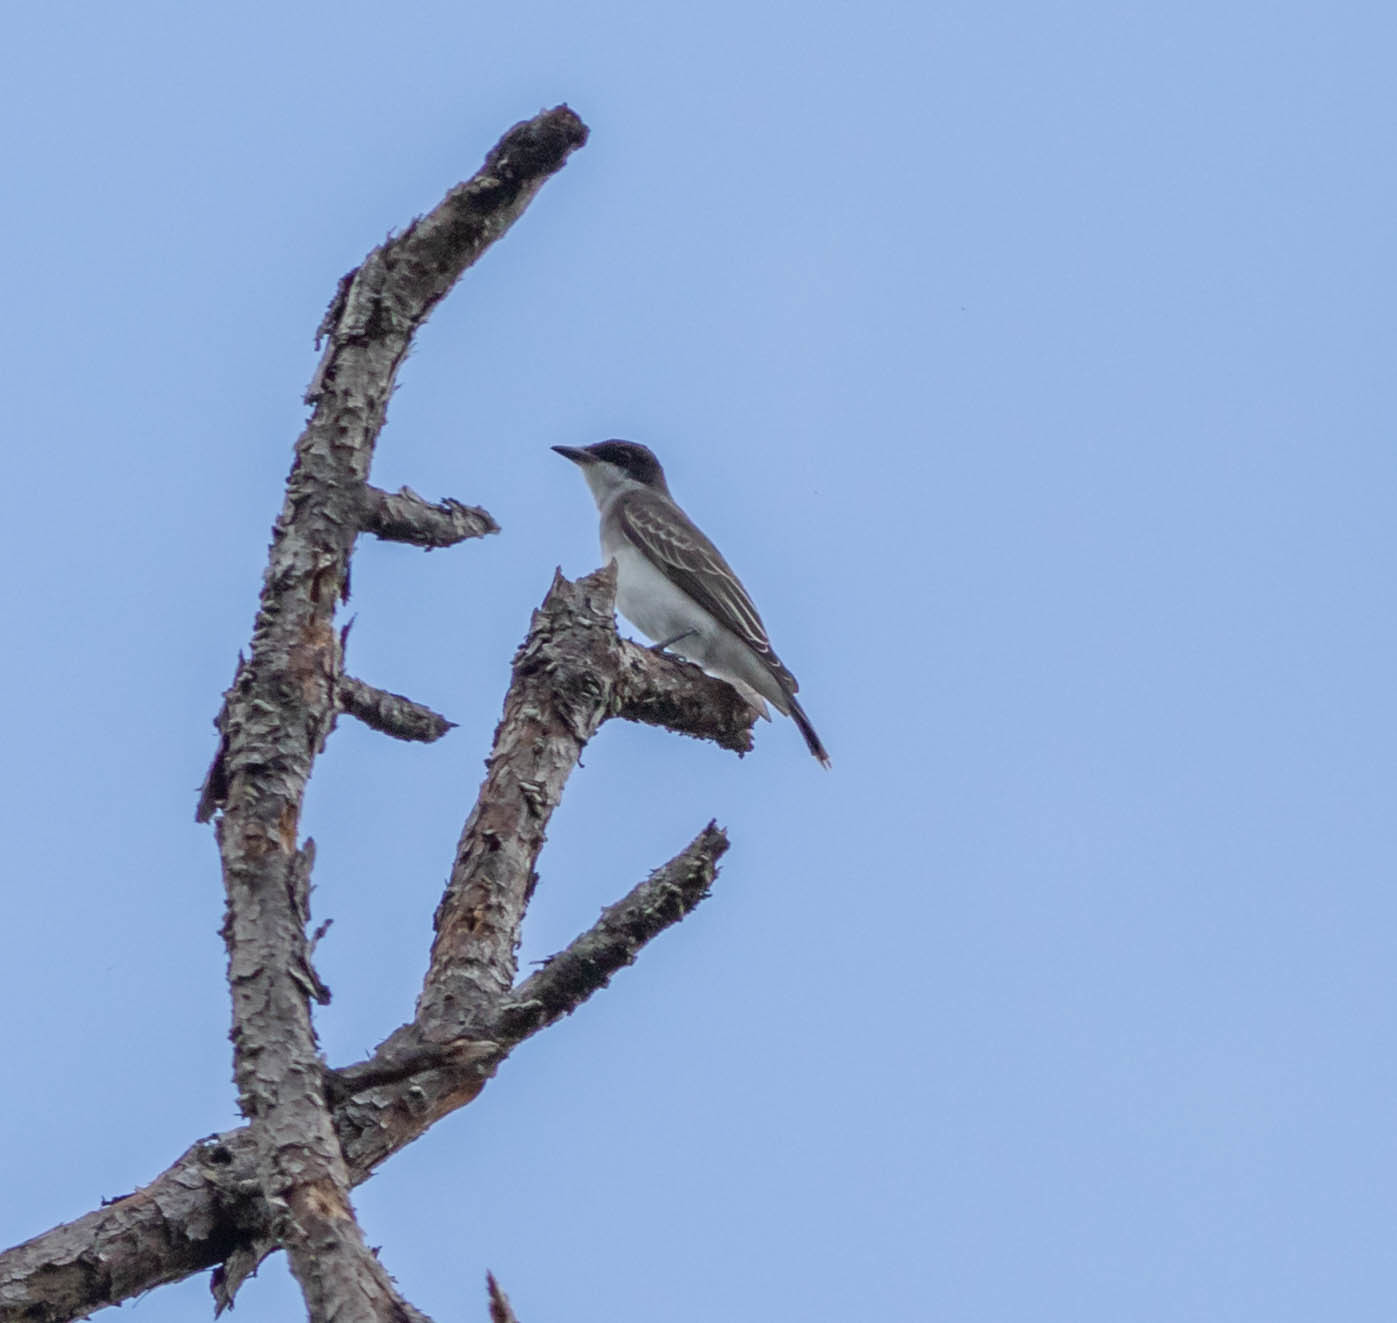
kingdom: Animalia
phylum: Chordata
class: Aves
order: Passeriformes
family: Tyrannidae
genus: Tyrannus
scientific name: Tyrannus tyrannus
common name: Eastern kingbird
